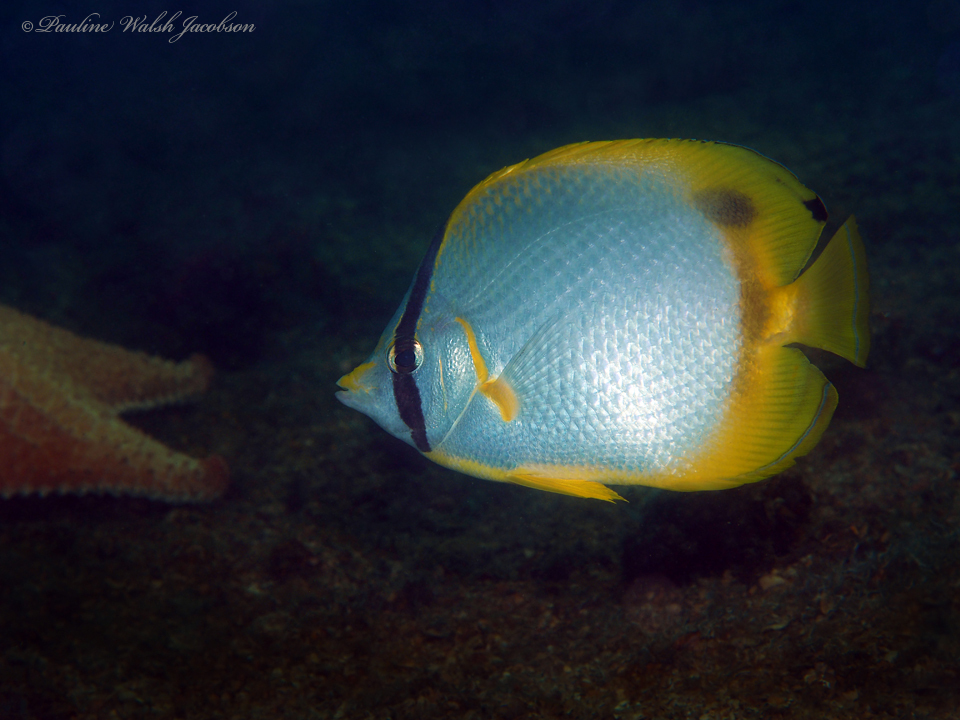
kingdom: Animalia
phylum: Chordata
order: Perciformes
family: Chaetodontidae
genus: Chaetodon
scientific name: Chaetodon ocellatus
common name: Spotfin butterflyfish
